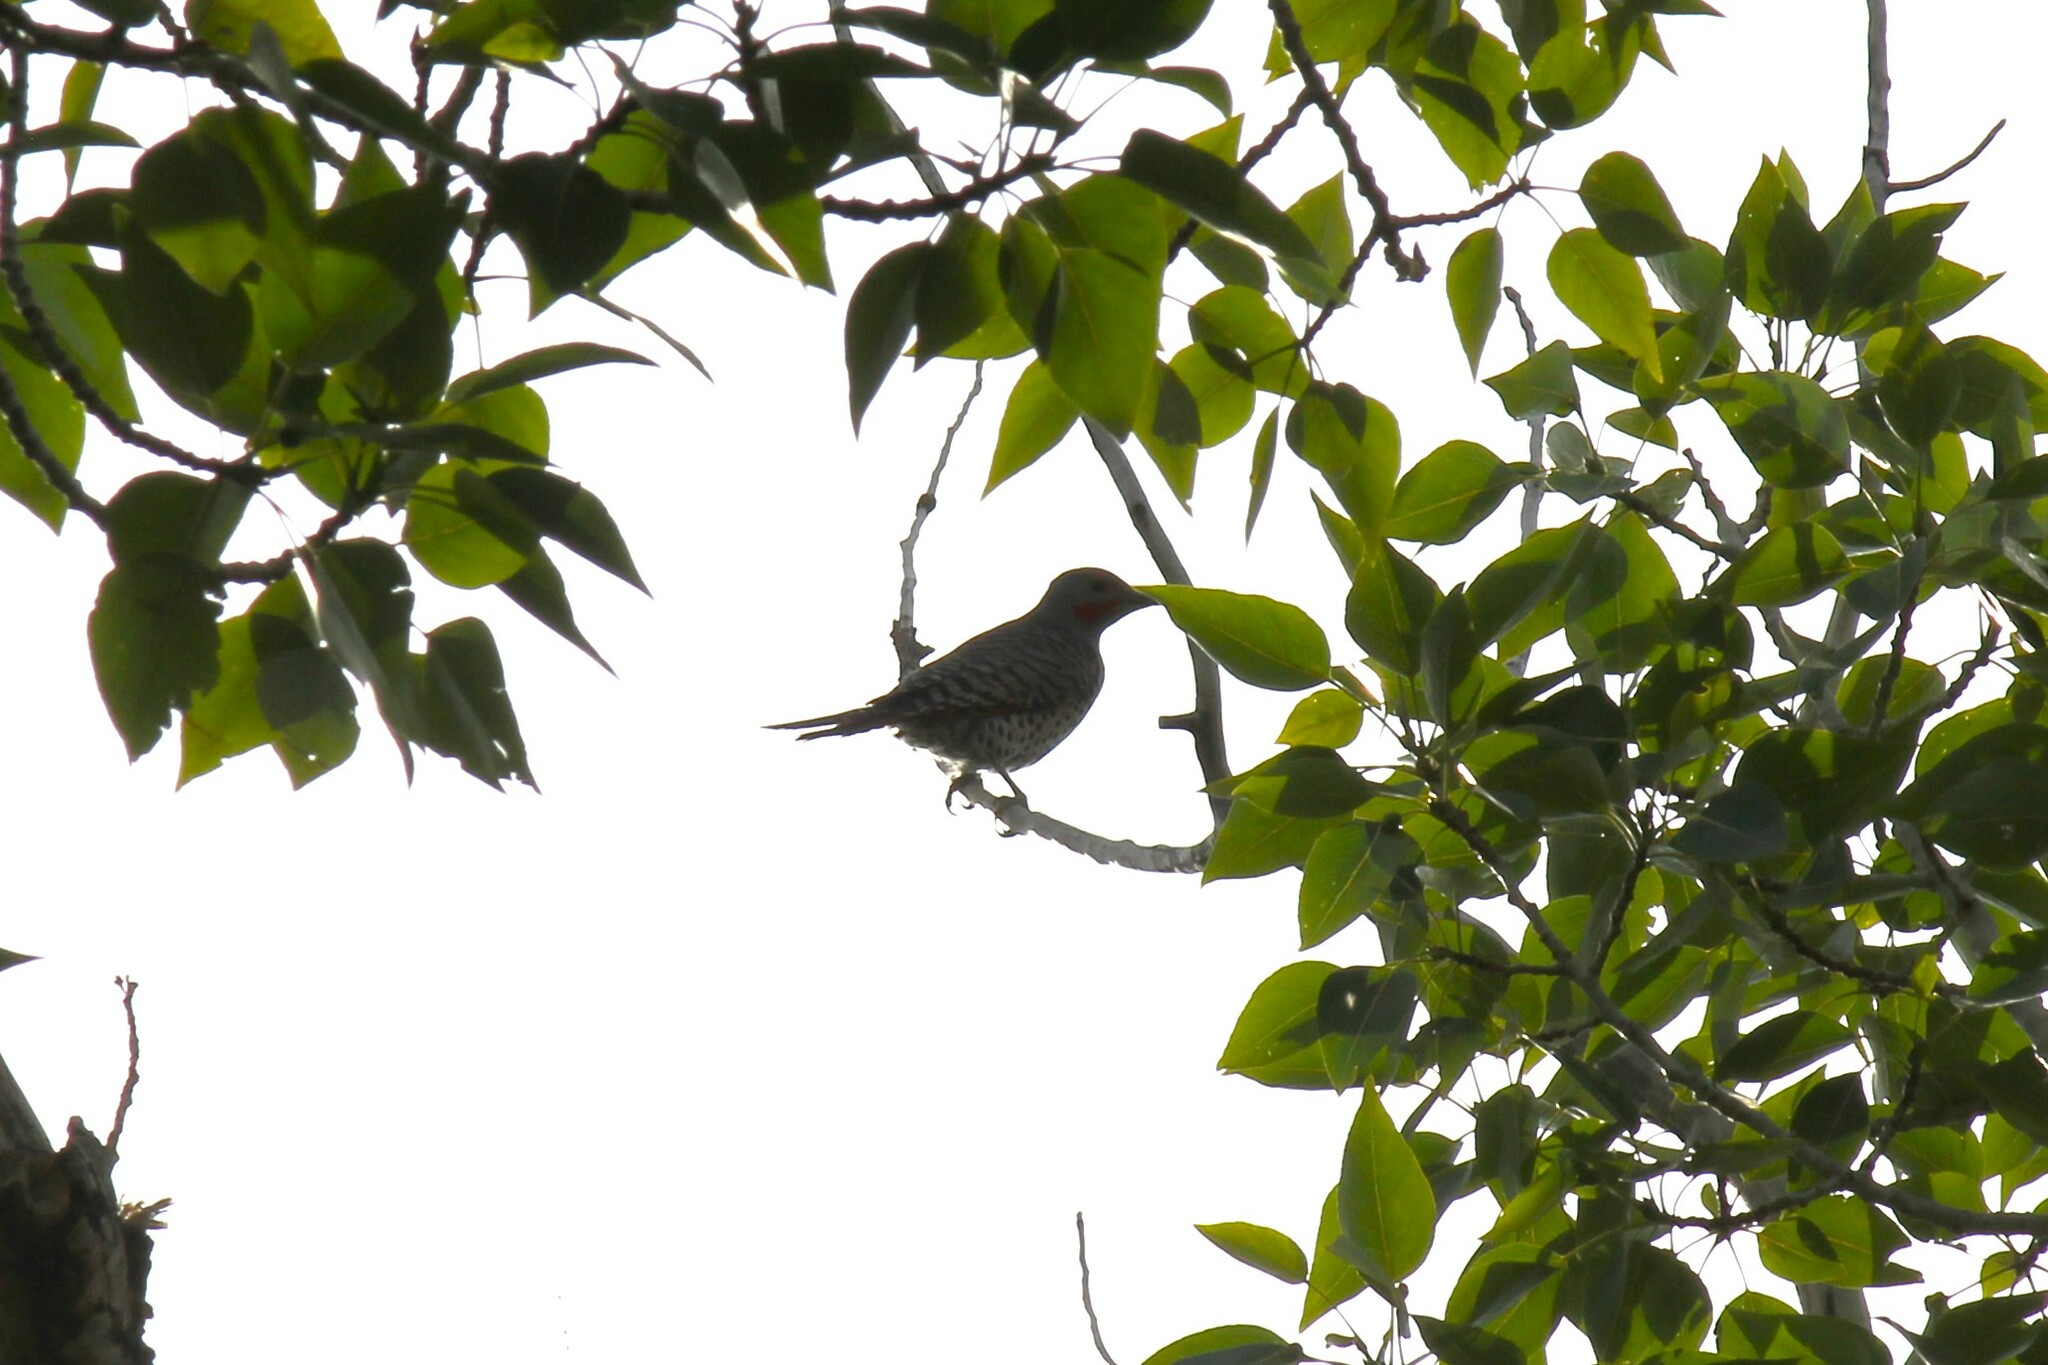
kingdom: Animalia
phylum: Chordata
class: Aves
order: Piciformes
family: Picidae
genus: Colaptes
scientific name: Colaptes auratus
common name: Northern flicker
